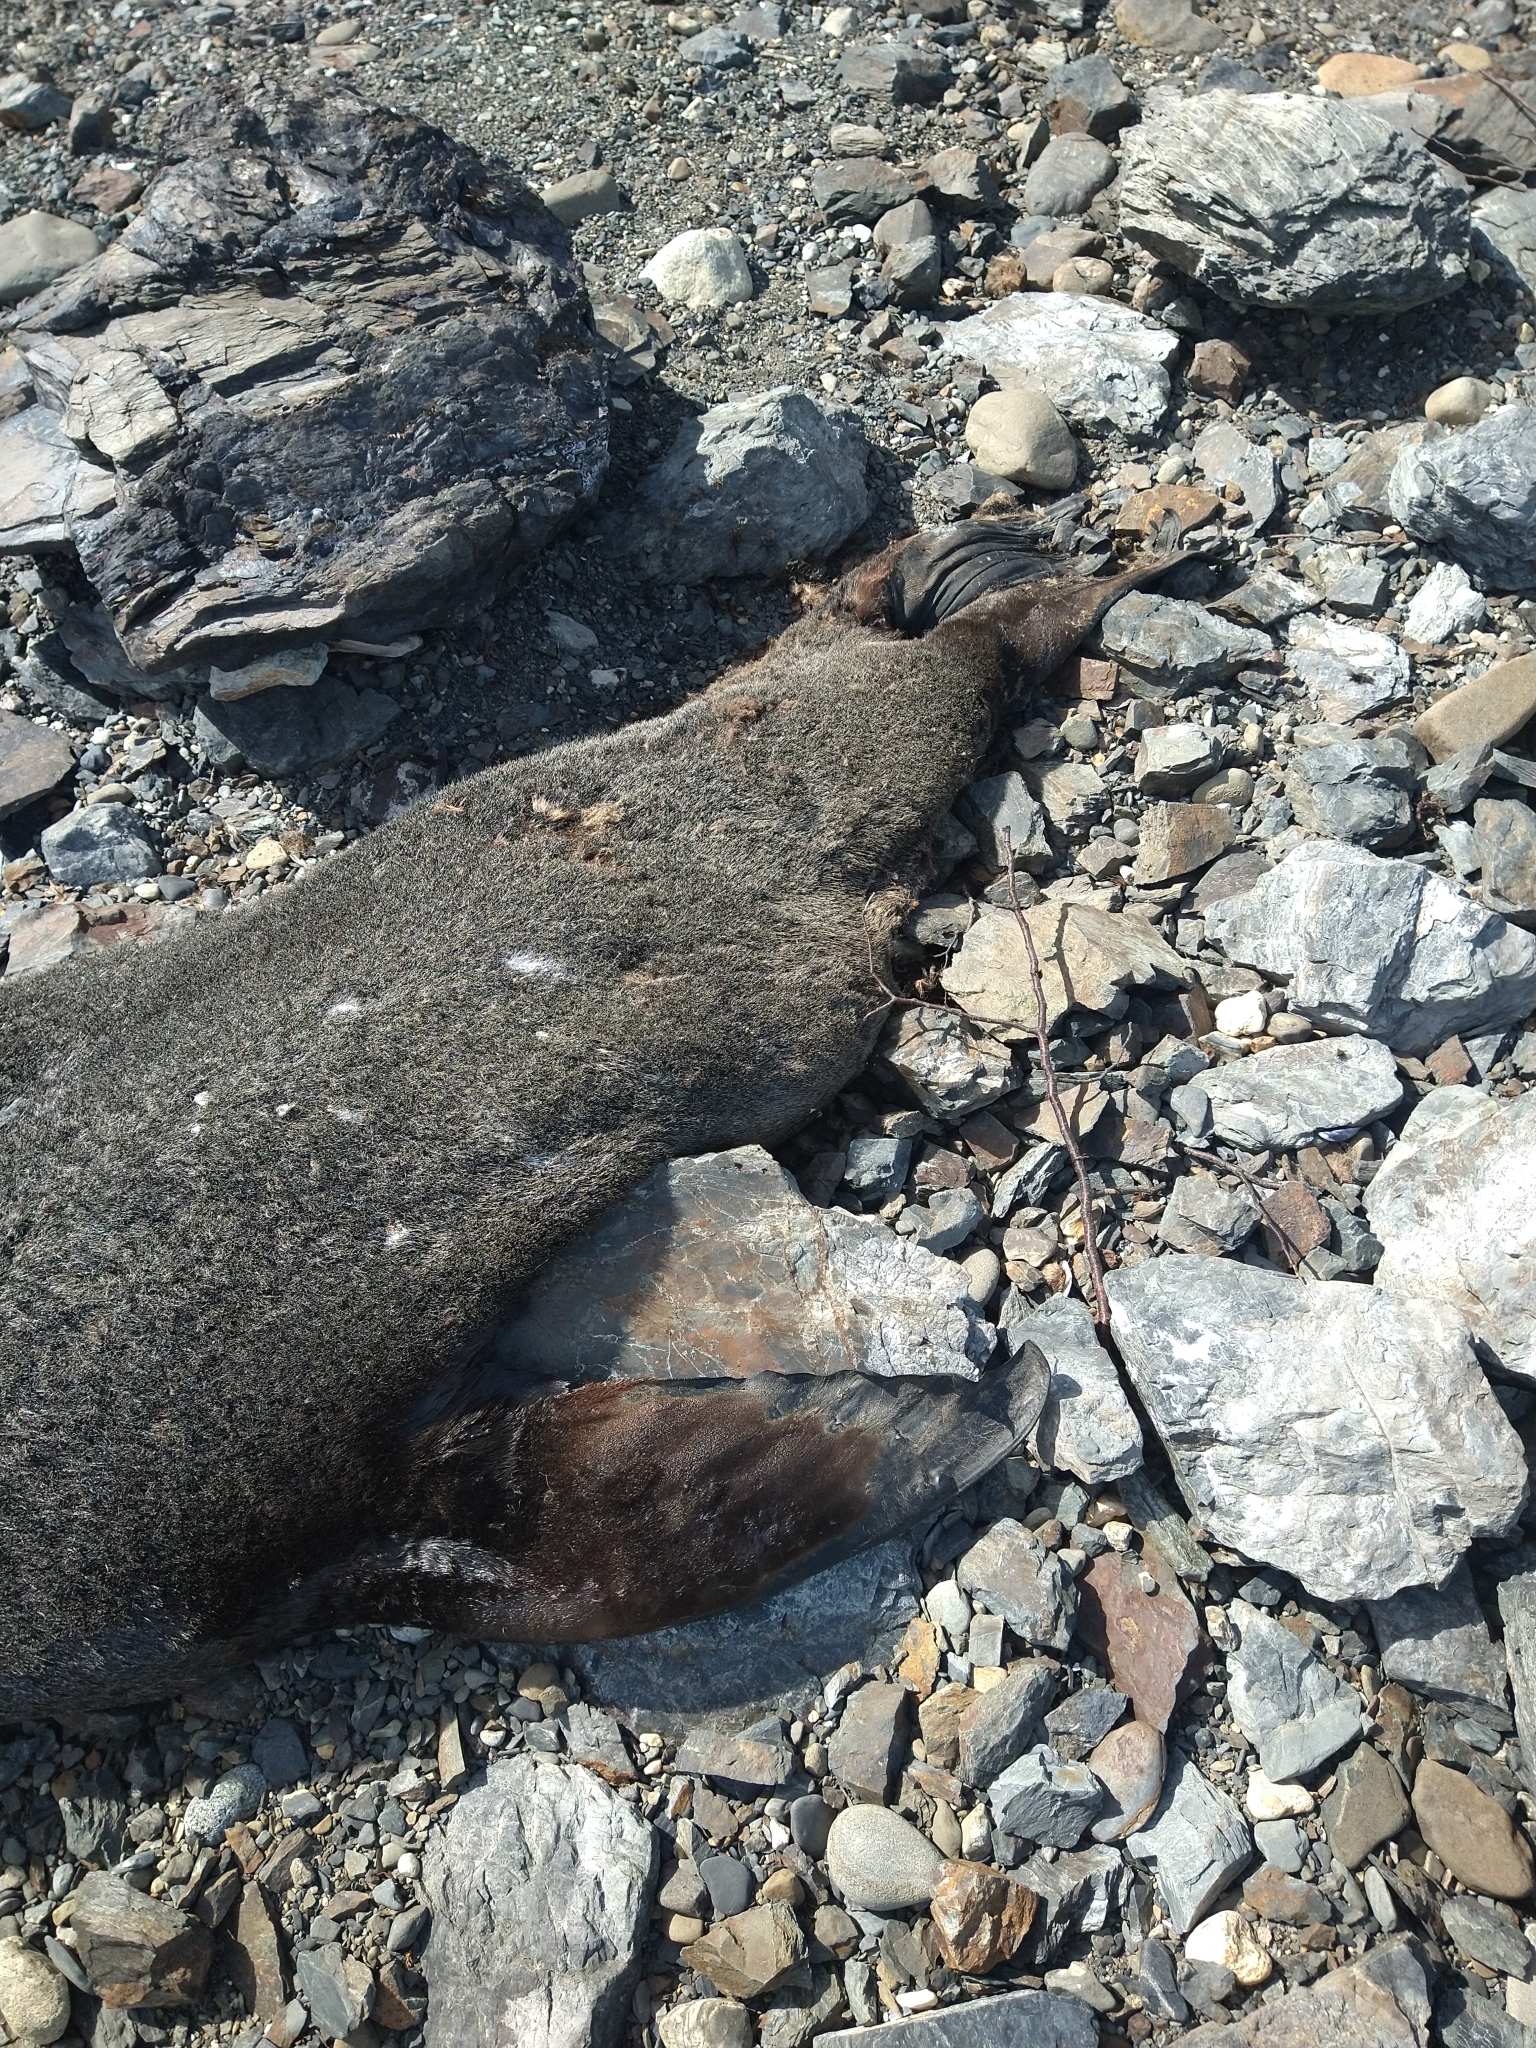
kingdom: Animalia
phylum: Chordata
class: Mammalia
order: Carnivora
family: Otariidae
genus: Arctocephalus
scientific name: Arctocephalus australis
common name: South american fur seal
